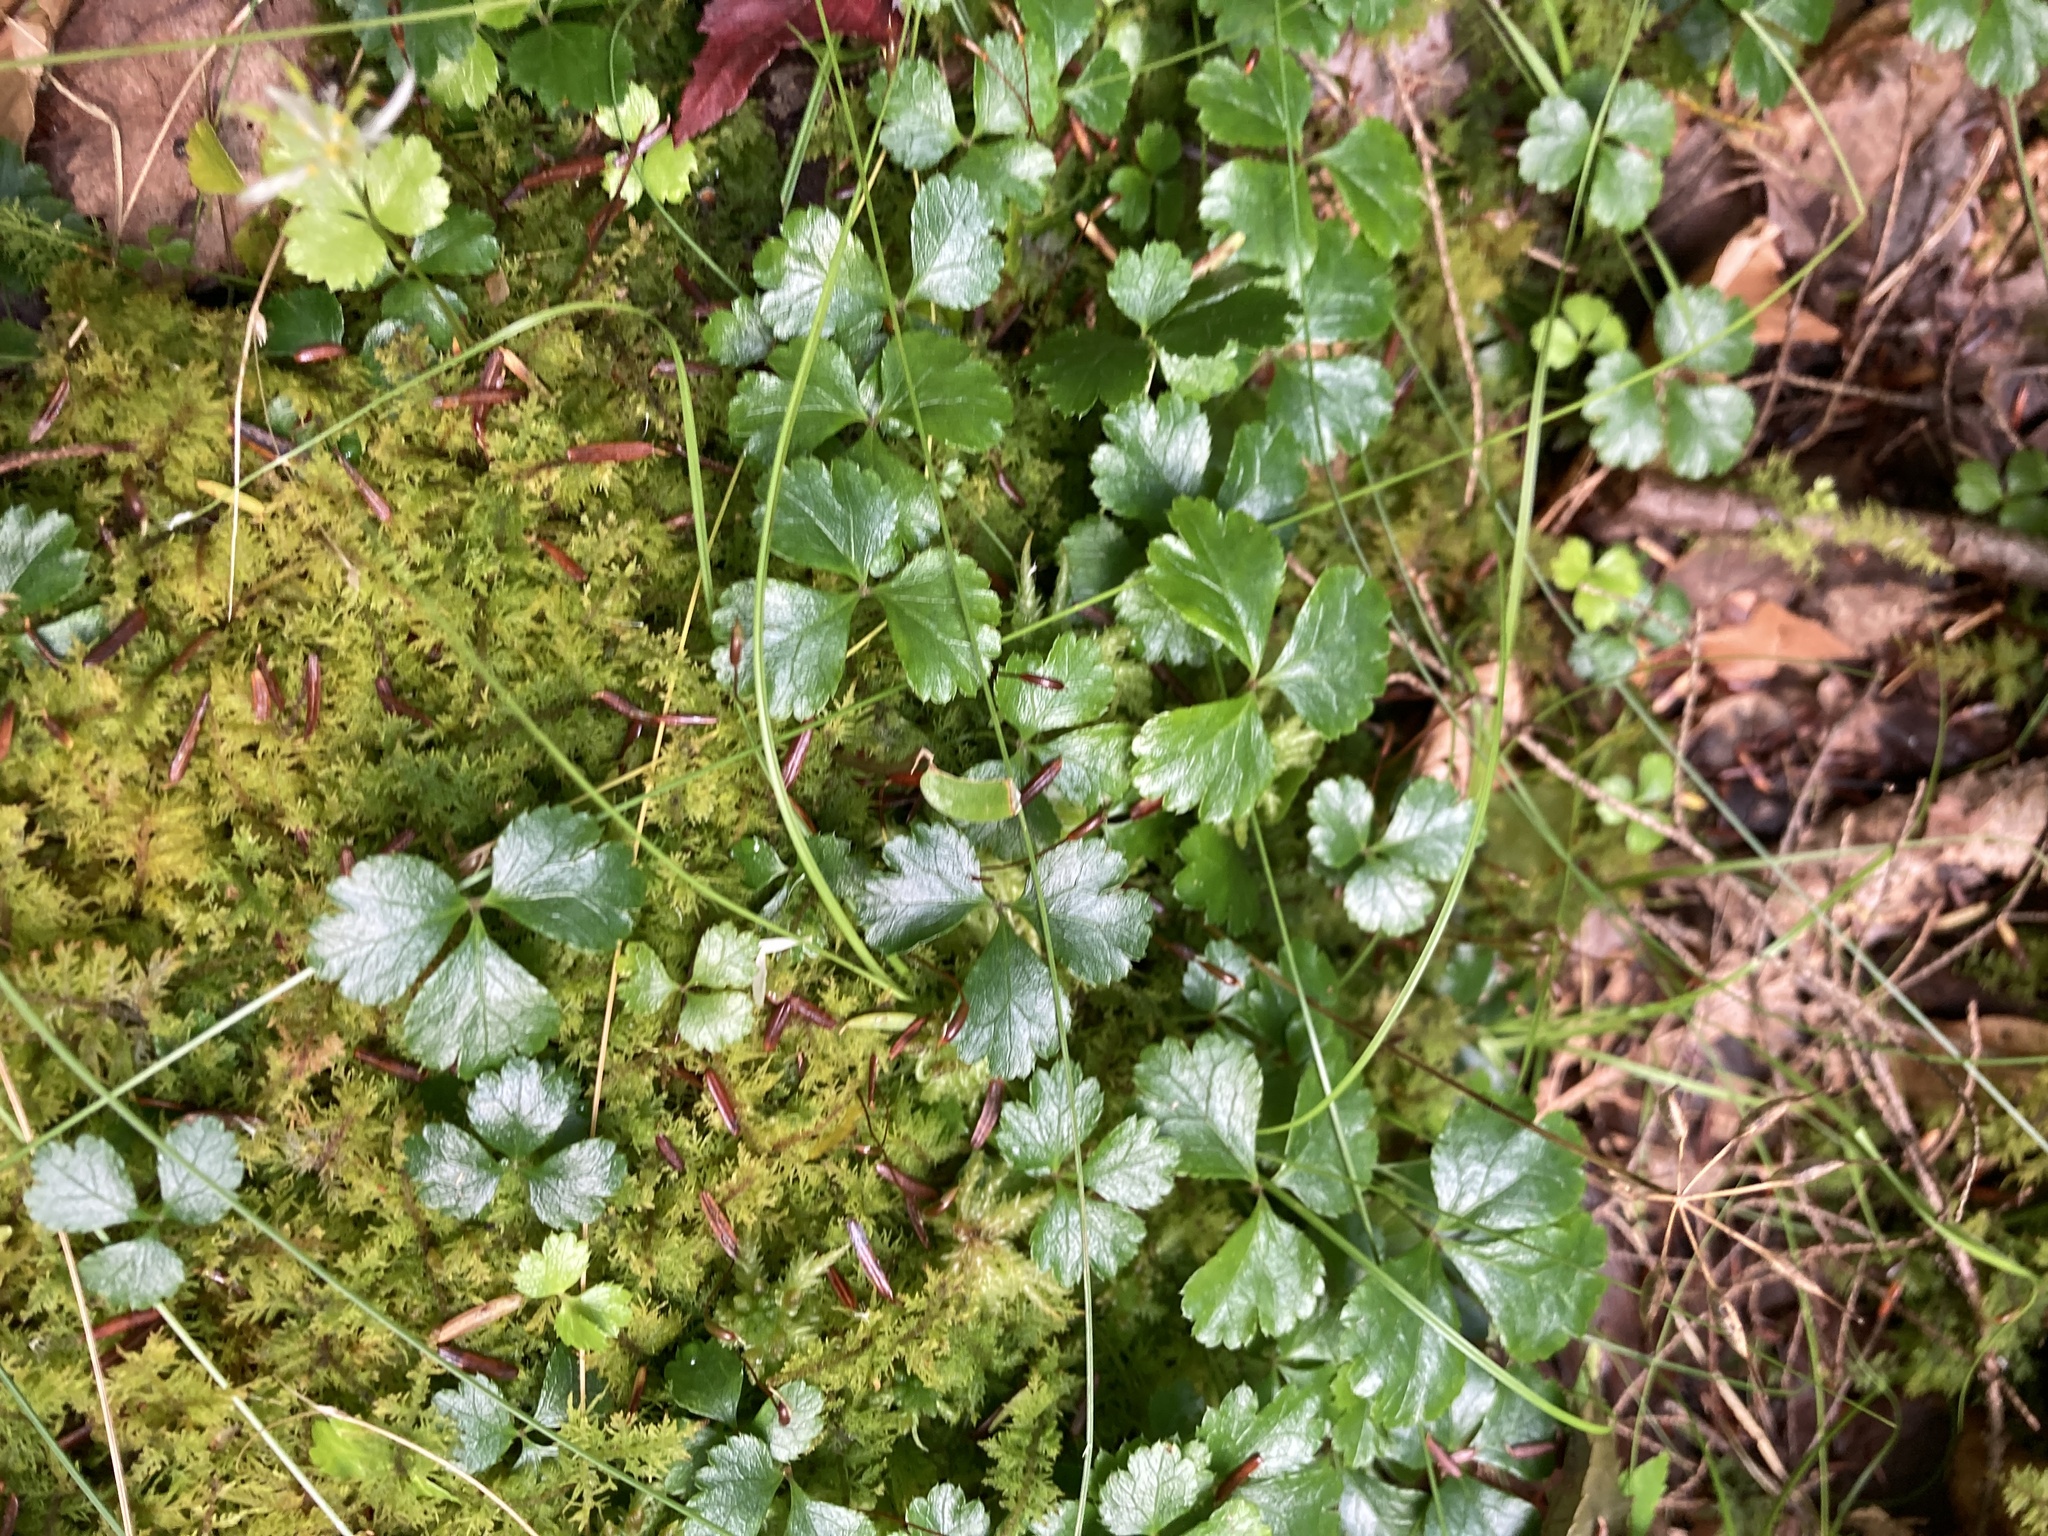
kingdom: Plantae
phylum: Tracheophyta
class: Magnoliopsida
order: Ranunculales
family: Ranunculaceae
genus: Coptis
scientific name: Coptis trifolia
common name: Canker-root
